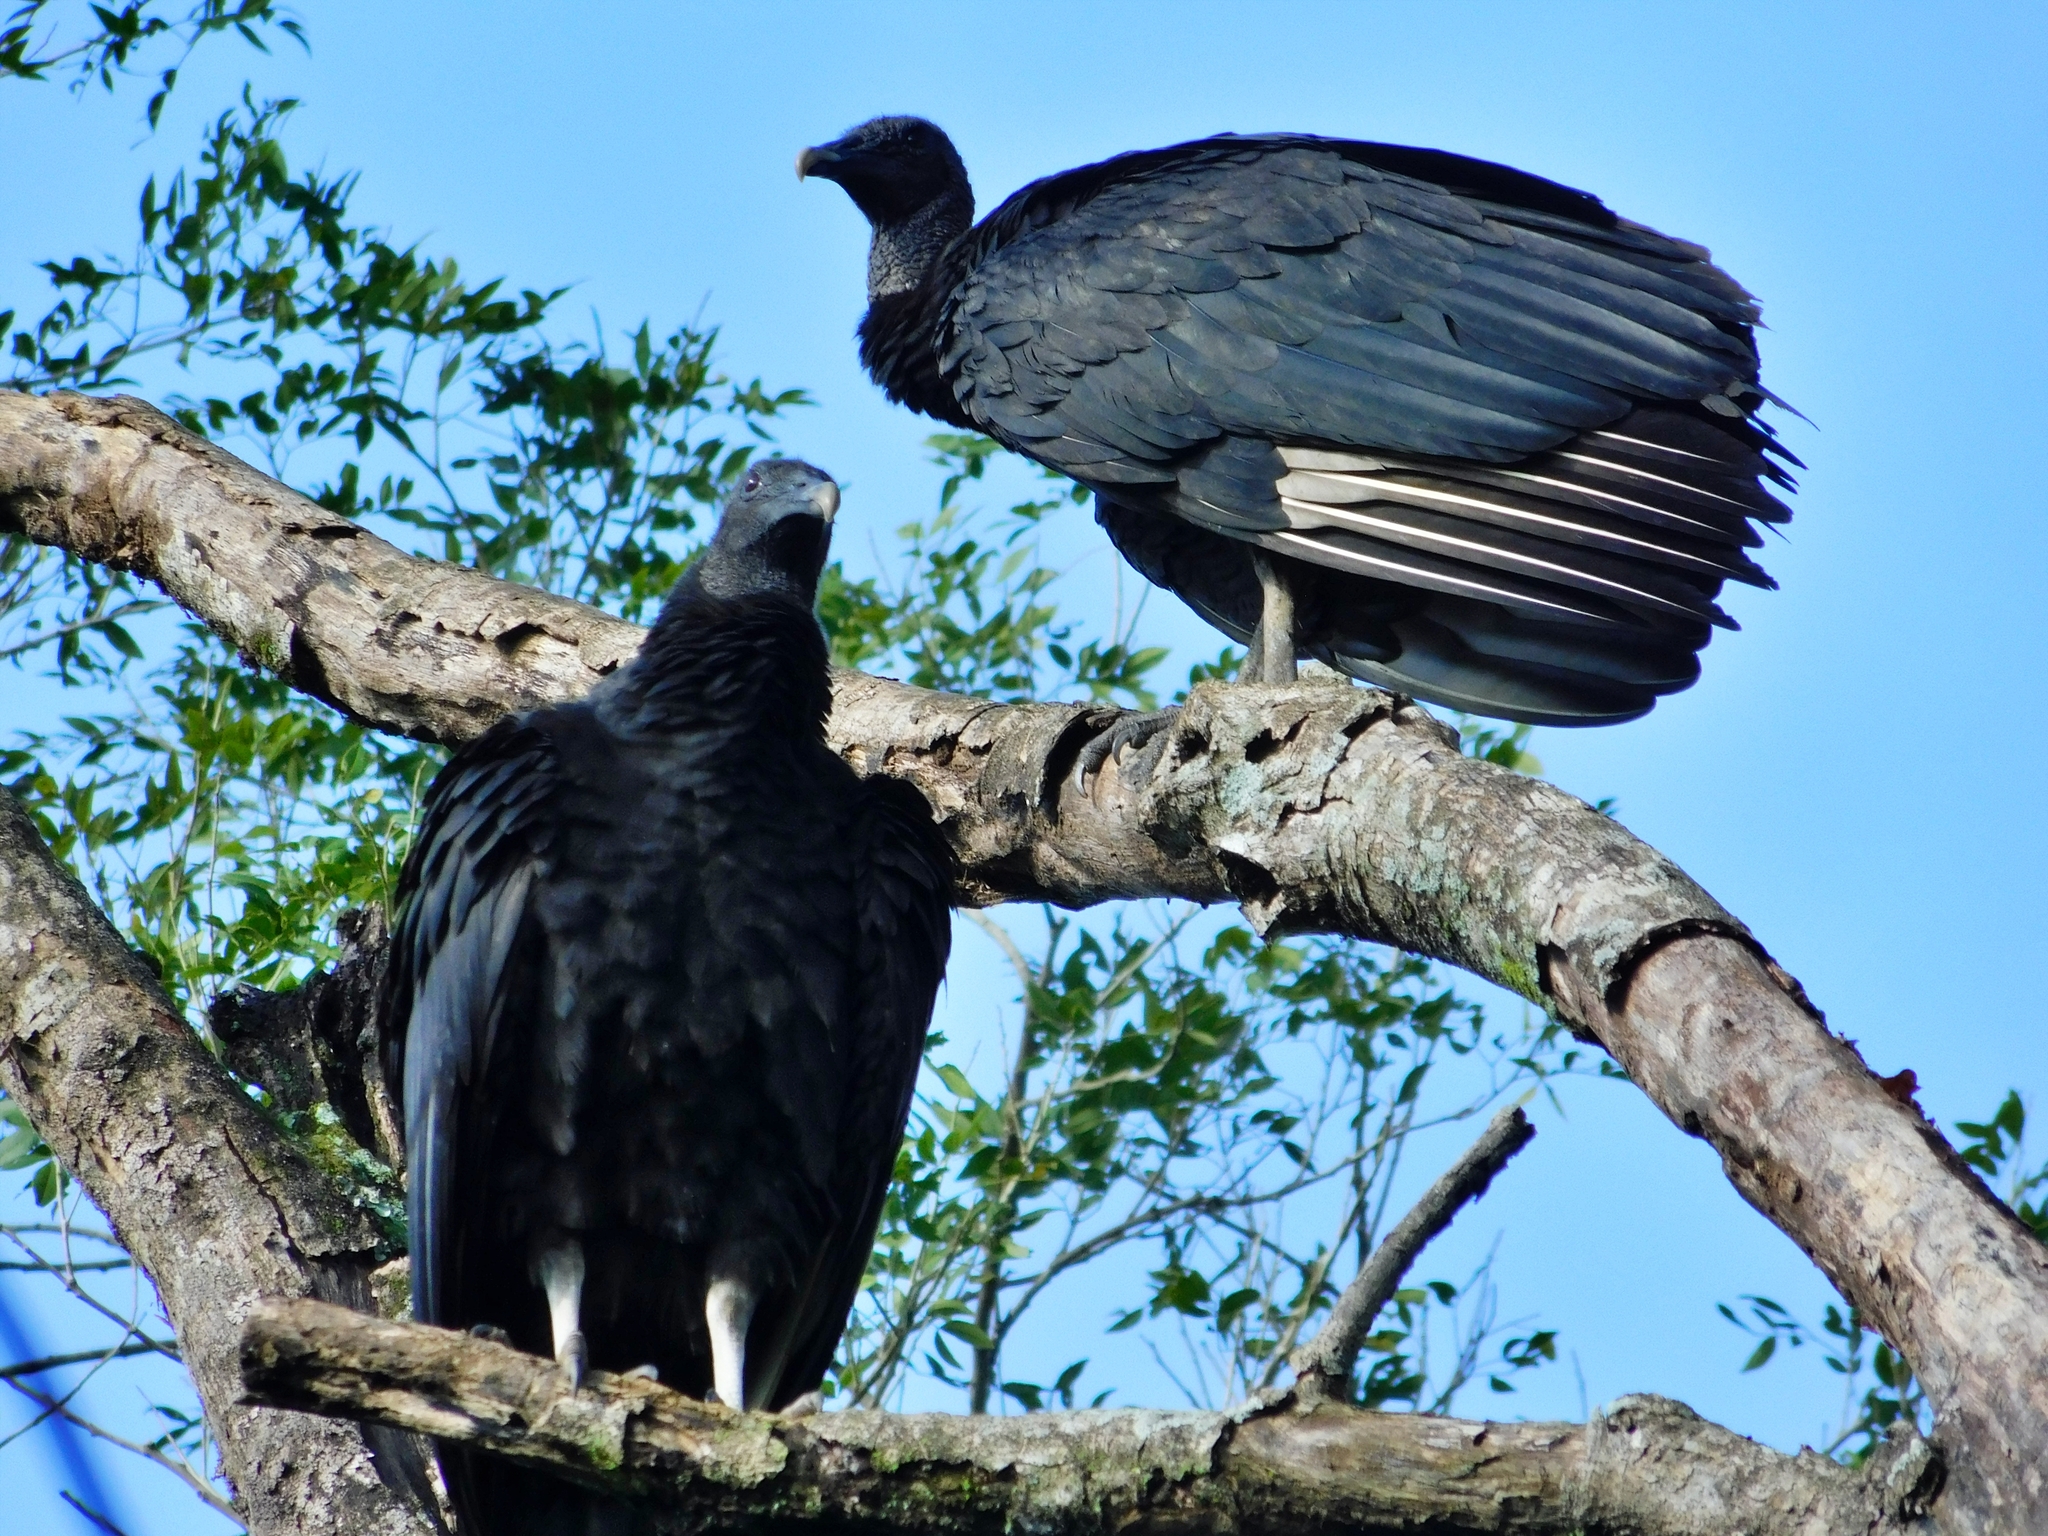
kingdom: Animalia
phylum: Chordata
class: Aves
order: Accipitriformes
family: Cathartidae
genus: Coragyps
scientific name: Coragyps atratus
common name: Black vulture
